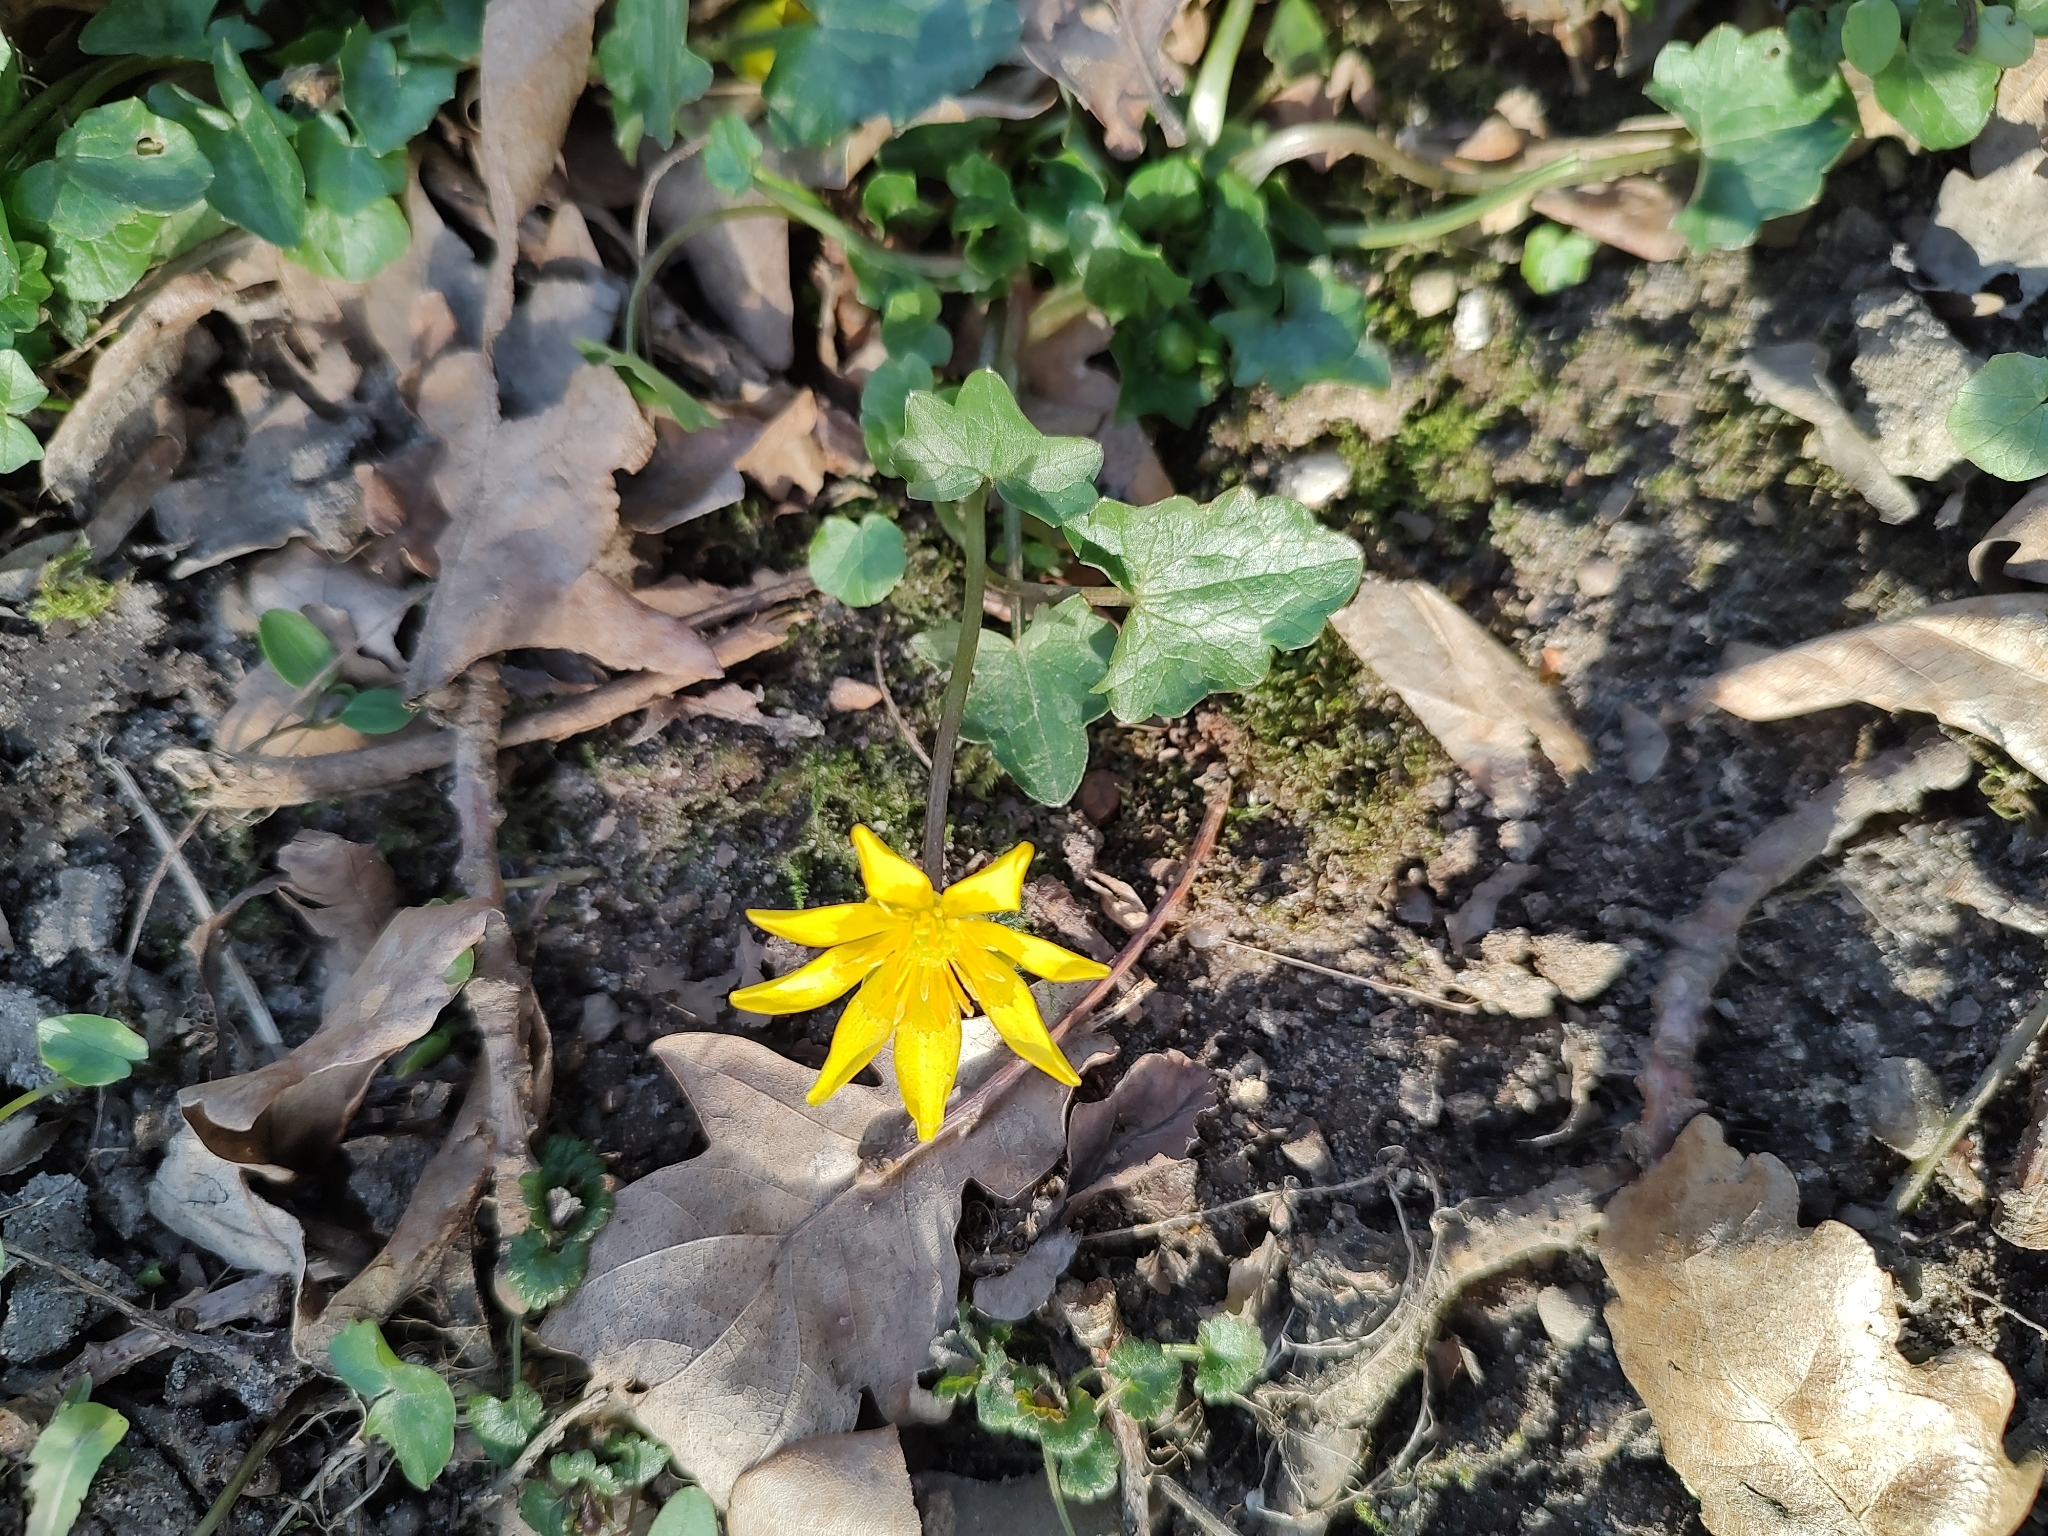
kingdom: Plantae
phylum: Tracheophyta
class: Magnoliopsida
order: Ranunculales
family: Ranunculaceae
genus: Ficaria
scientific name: Ficaria verna
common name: Lesser celandine
